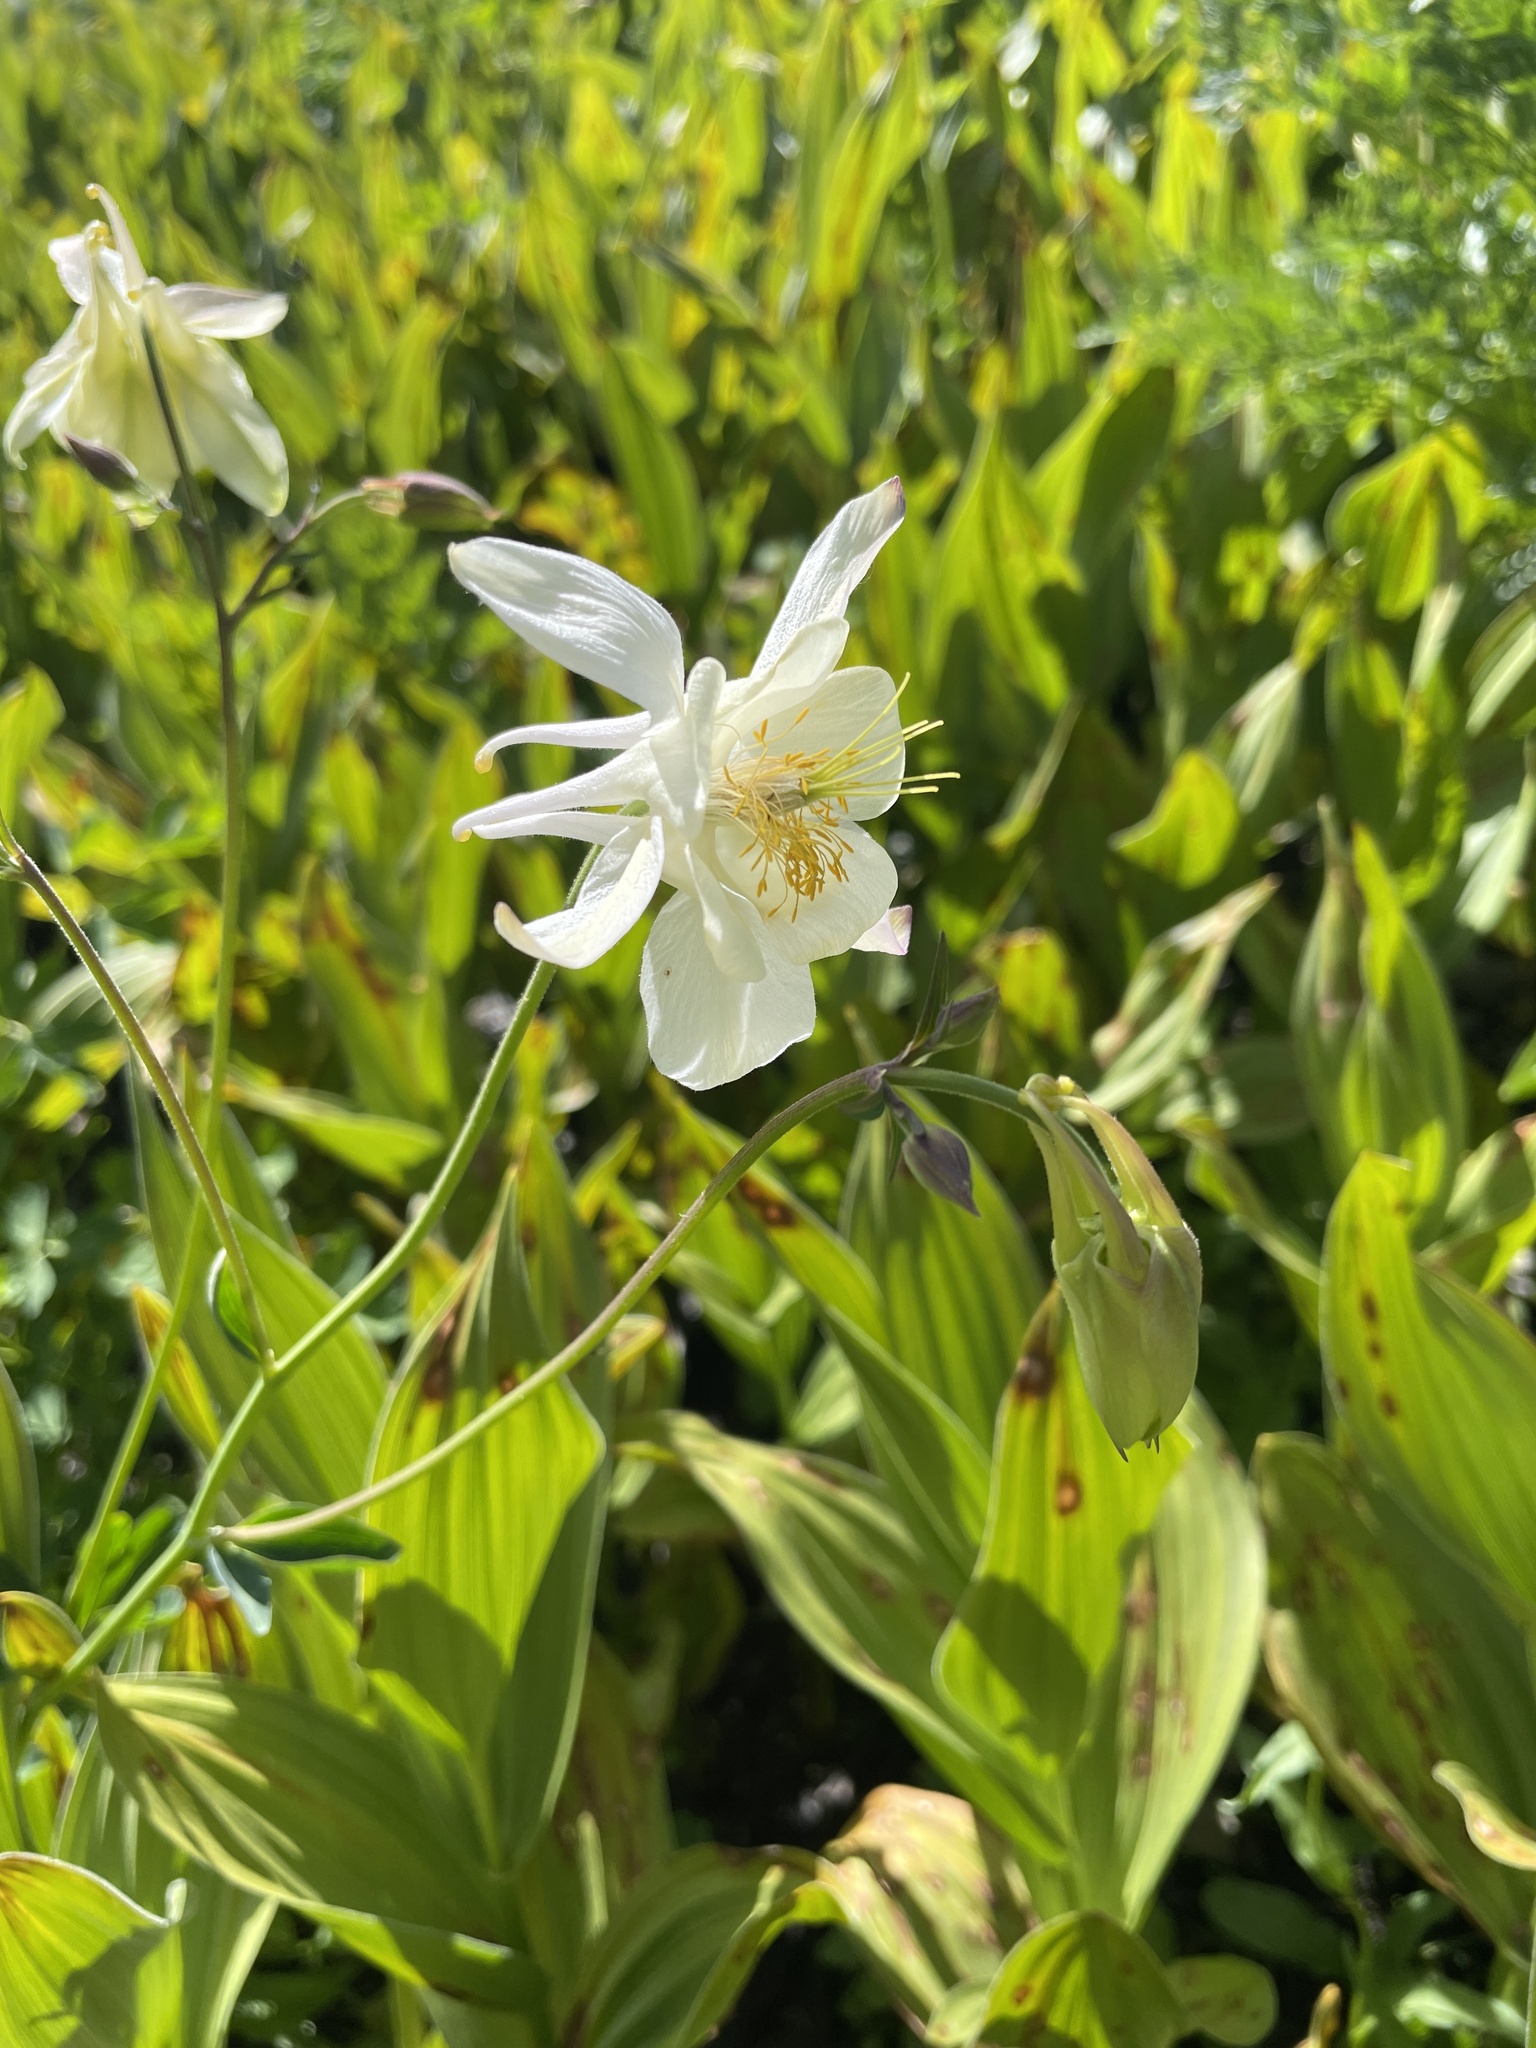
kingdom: Plantae
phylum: Tracheophyta
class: Magnoliopsida
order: Ranunculales
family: Ranunculaceae
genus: Aquilegia
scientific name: Aquilegia coerulea
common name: Rocky mountain columbine
